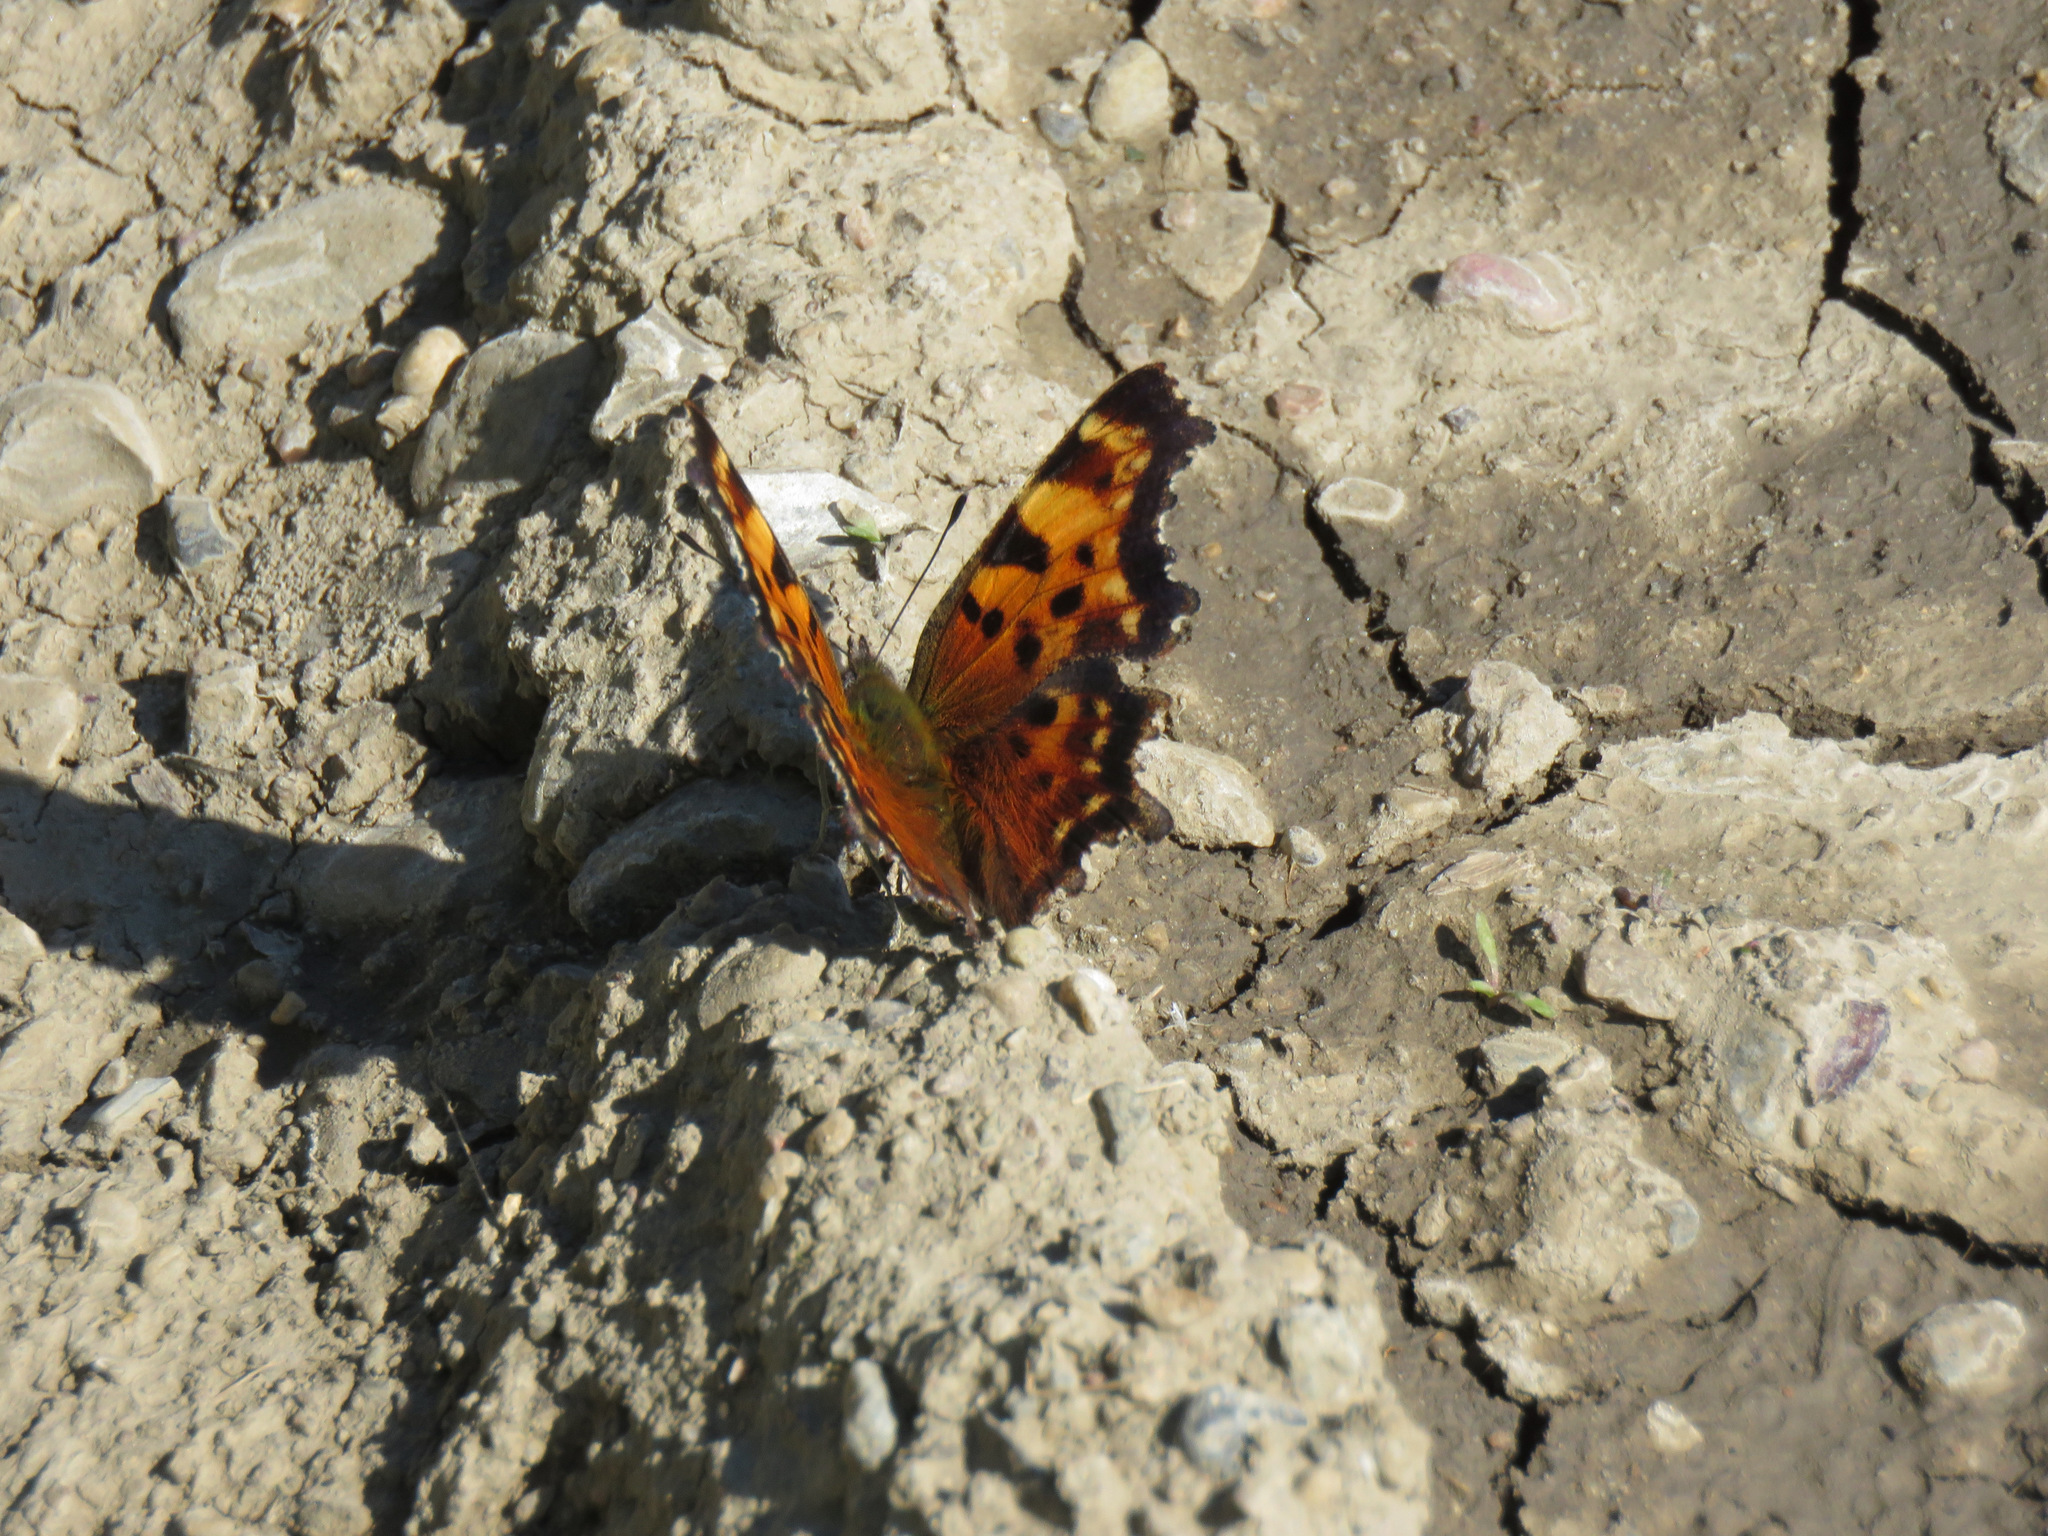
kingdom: Animalia
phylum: Arthropoda
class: Insecta
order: Lepidoptera
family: Nymphalidae
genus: Polygonia
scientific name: Polygonia faunus
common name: Green comma
